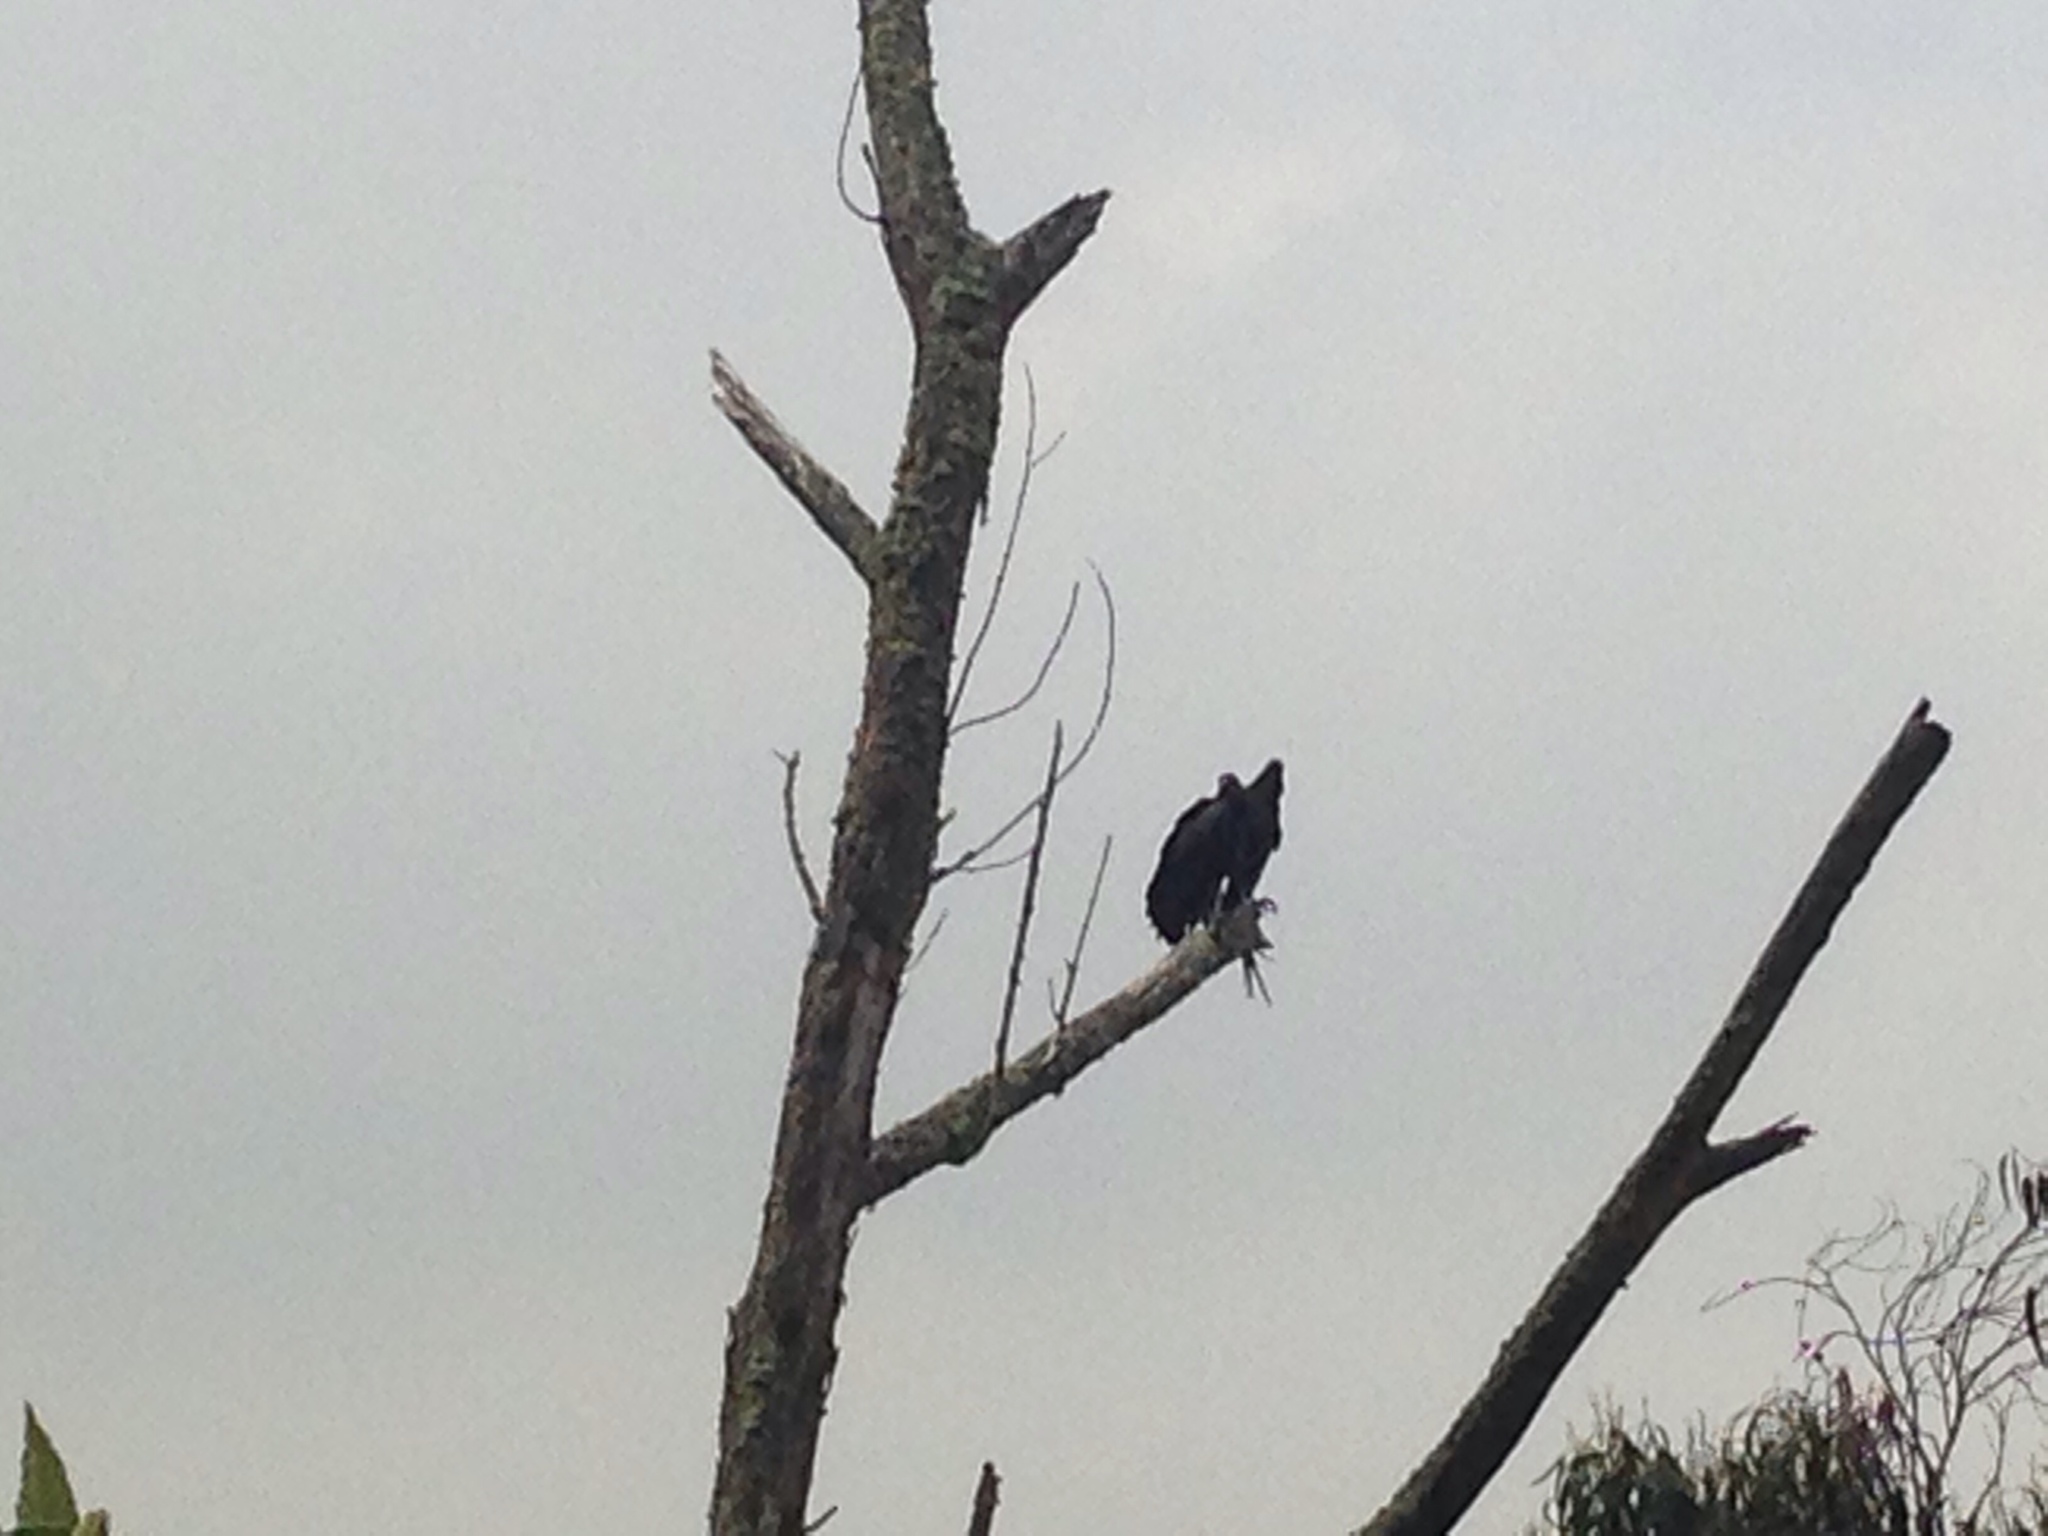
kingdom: Animalia
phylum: Chordata
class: Aves
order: Accipitriformes
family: Cathartidae
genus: Coragyps
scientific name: Coragyps atratus
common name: Black vulture
